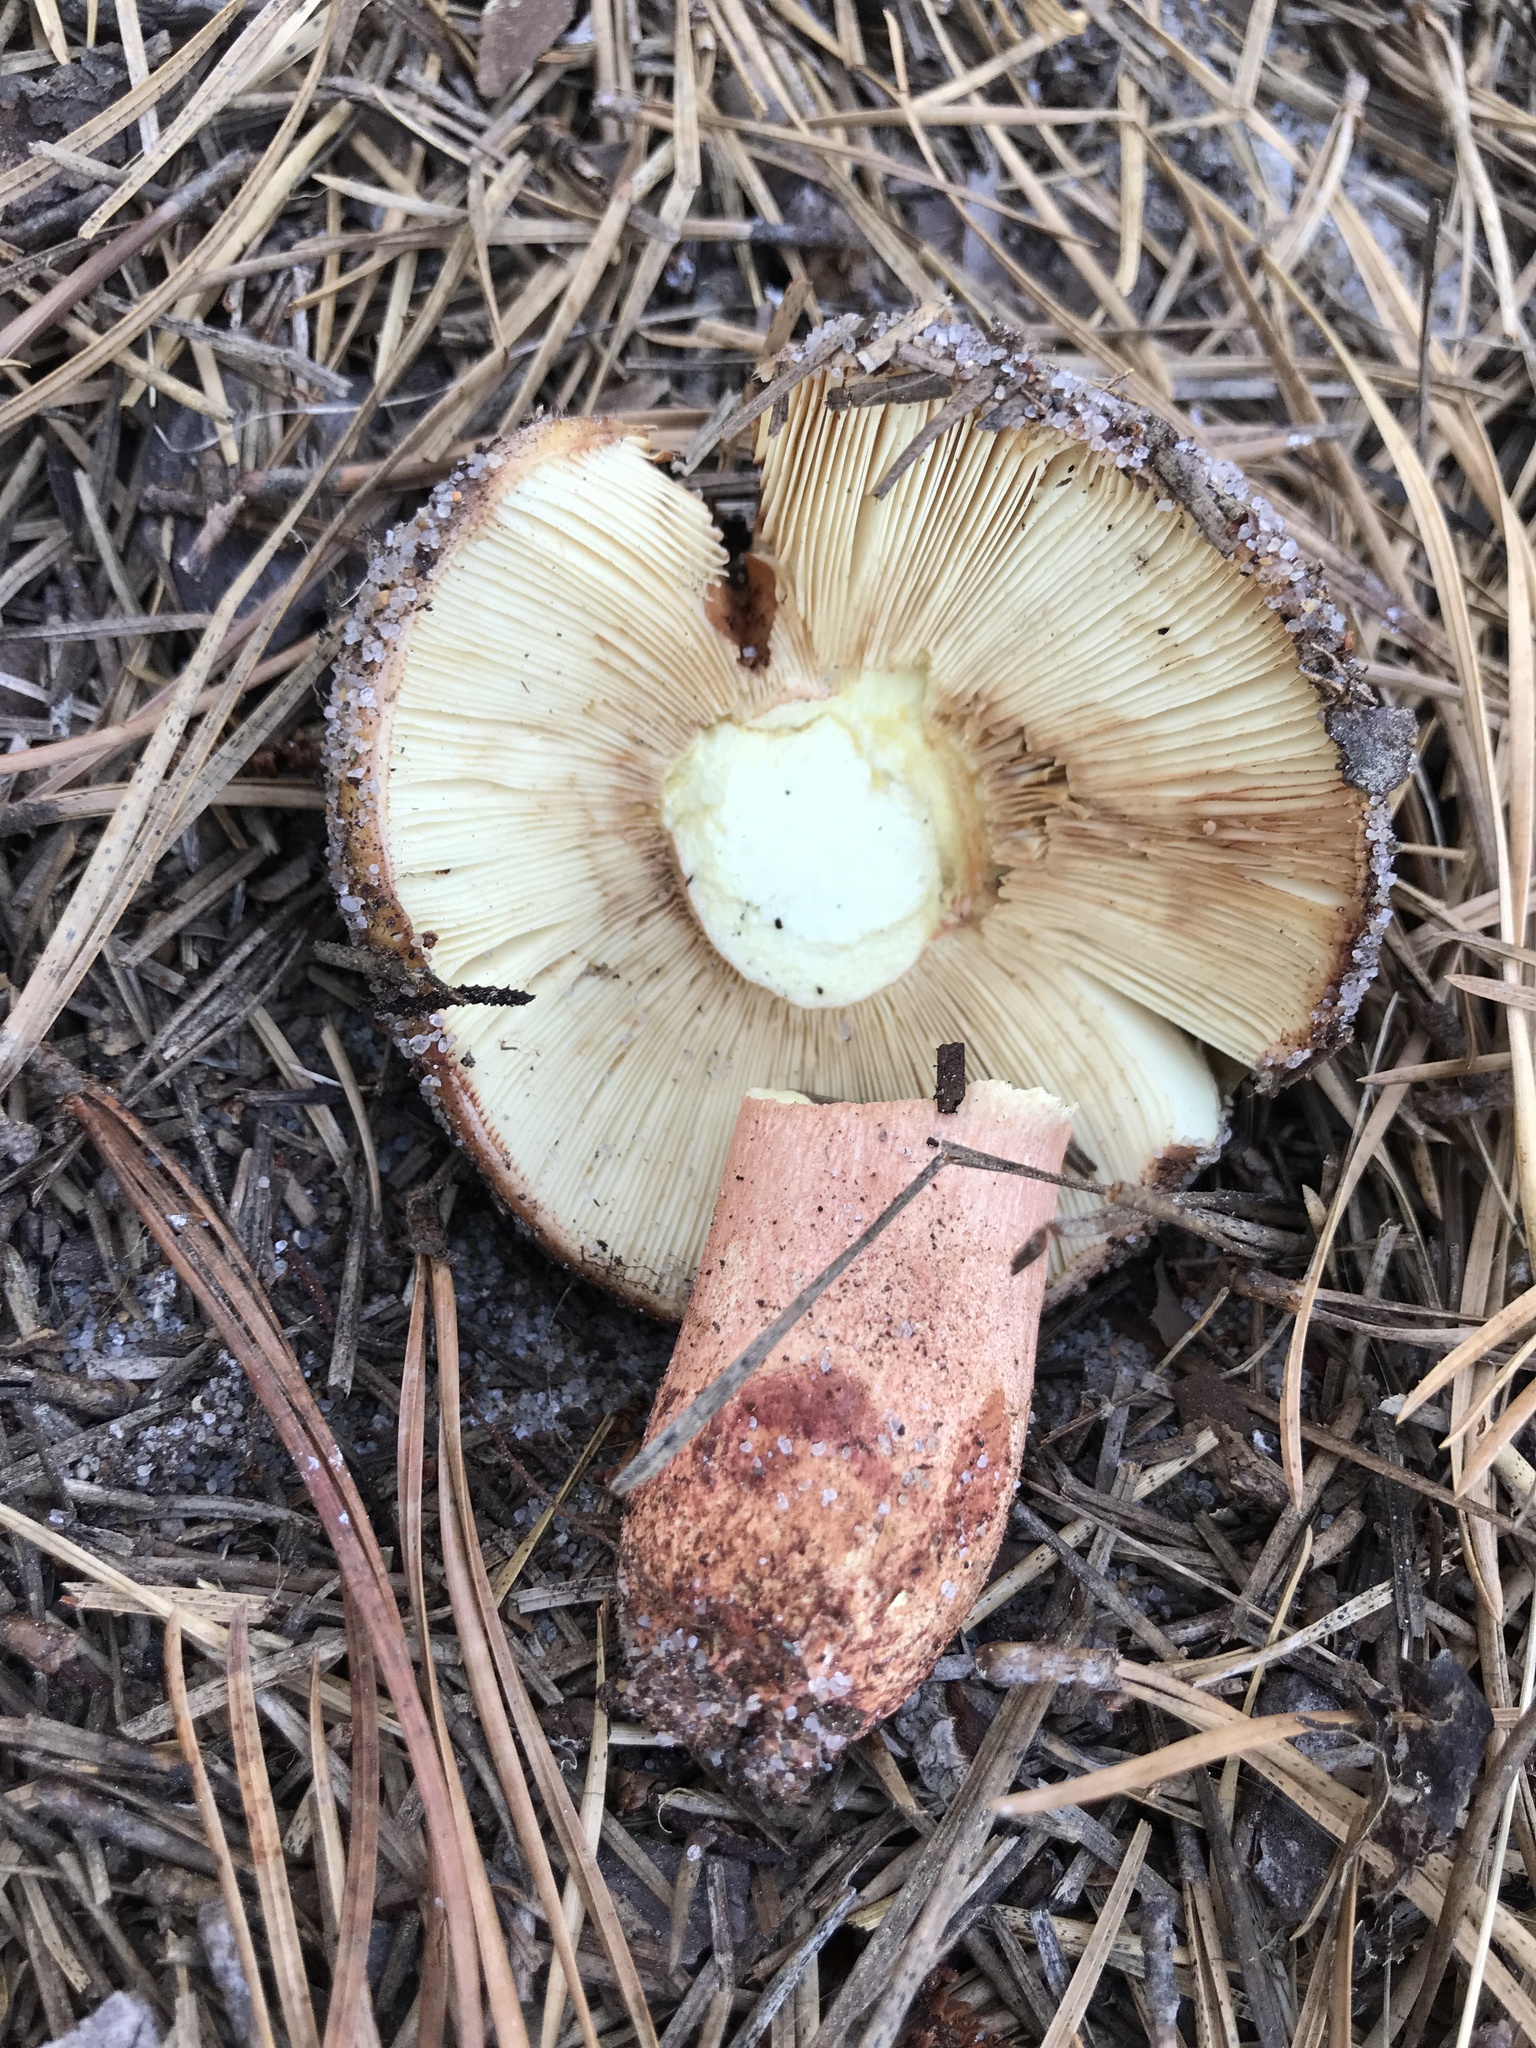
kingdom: Fungi
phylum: Basidiomycota
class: Agaricomycetes
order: Russulales
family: Russulaceae
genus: Russula
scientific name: Russula ventricosipes
